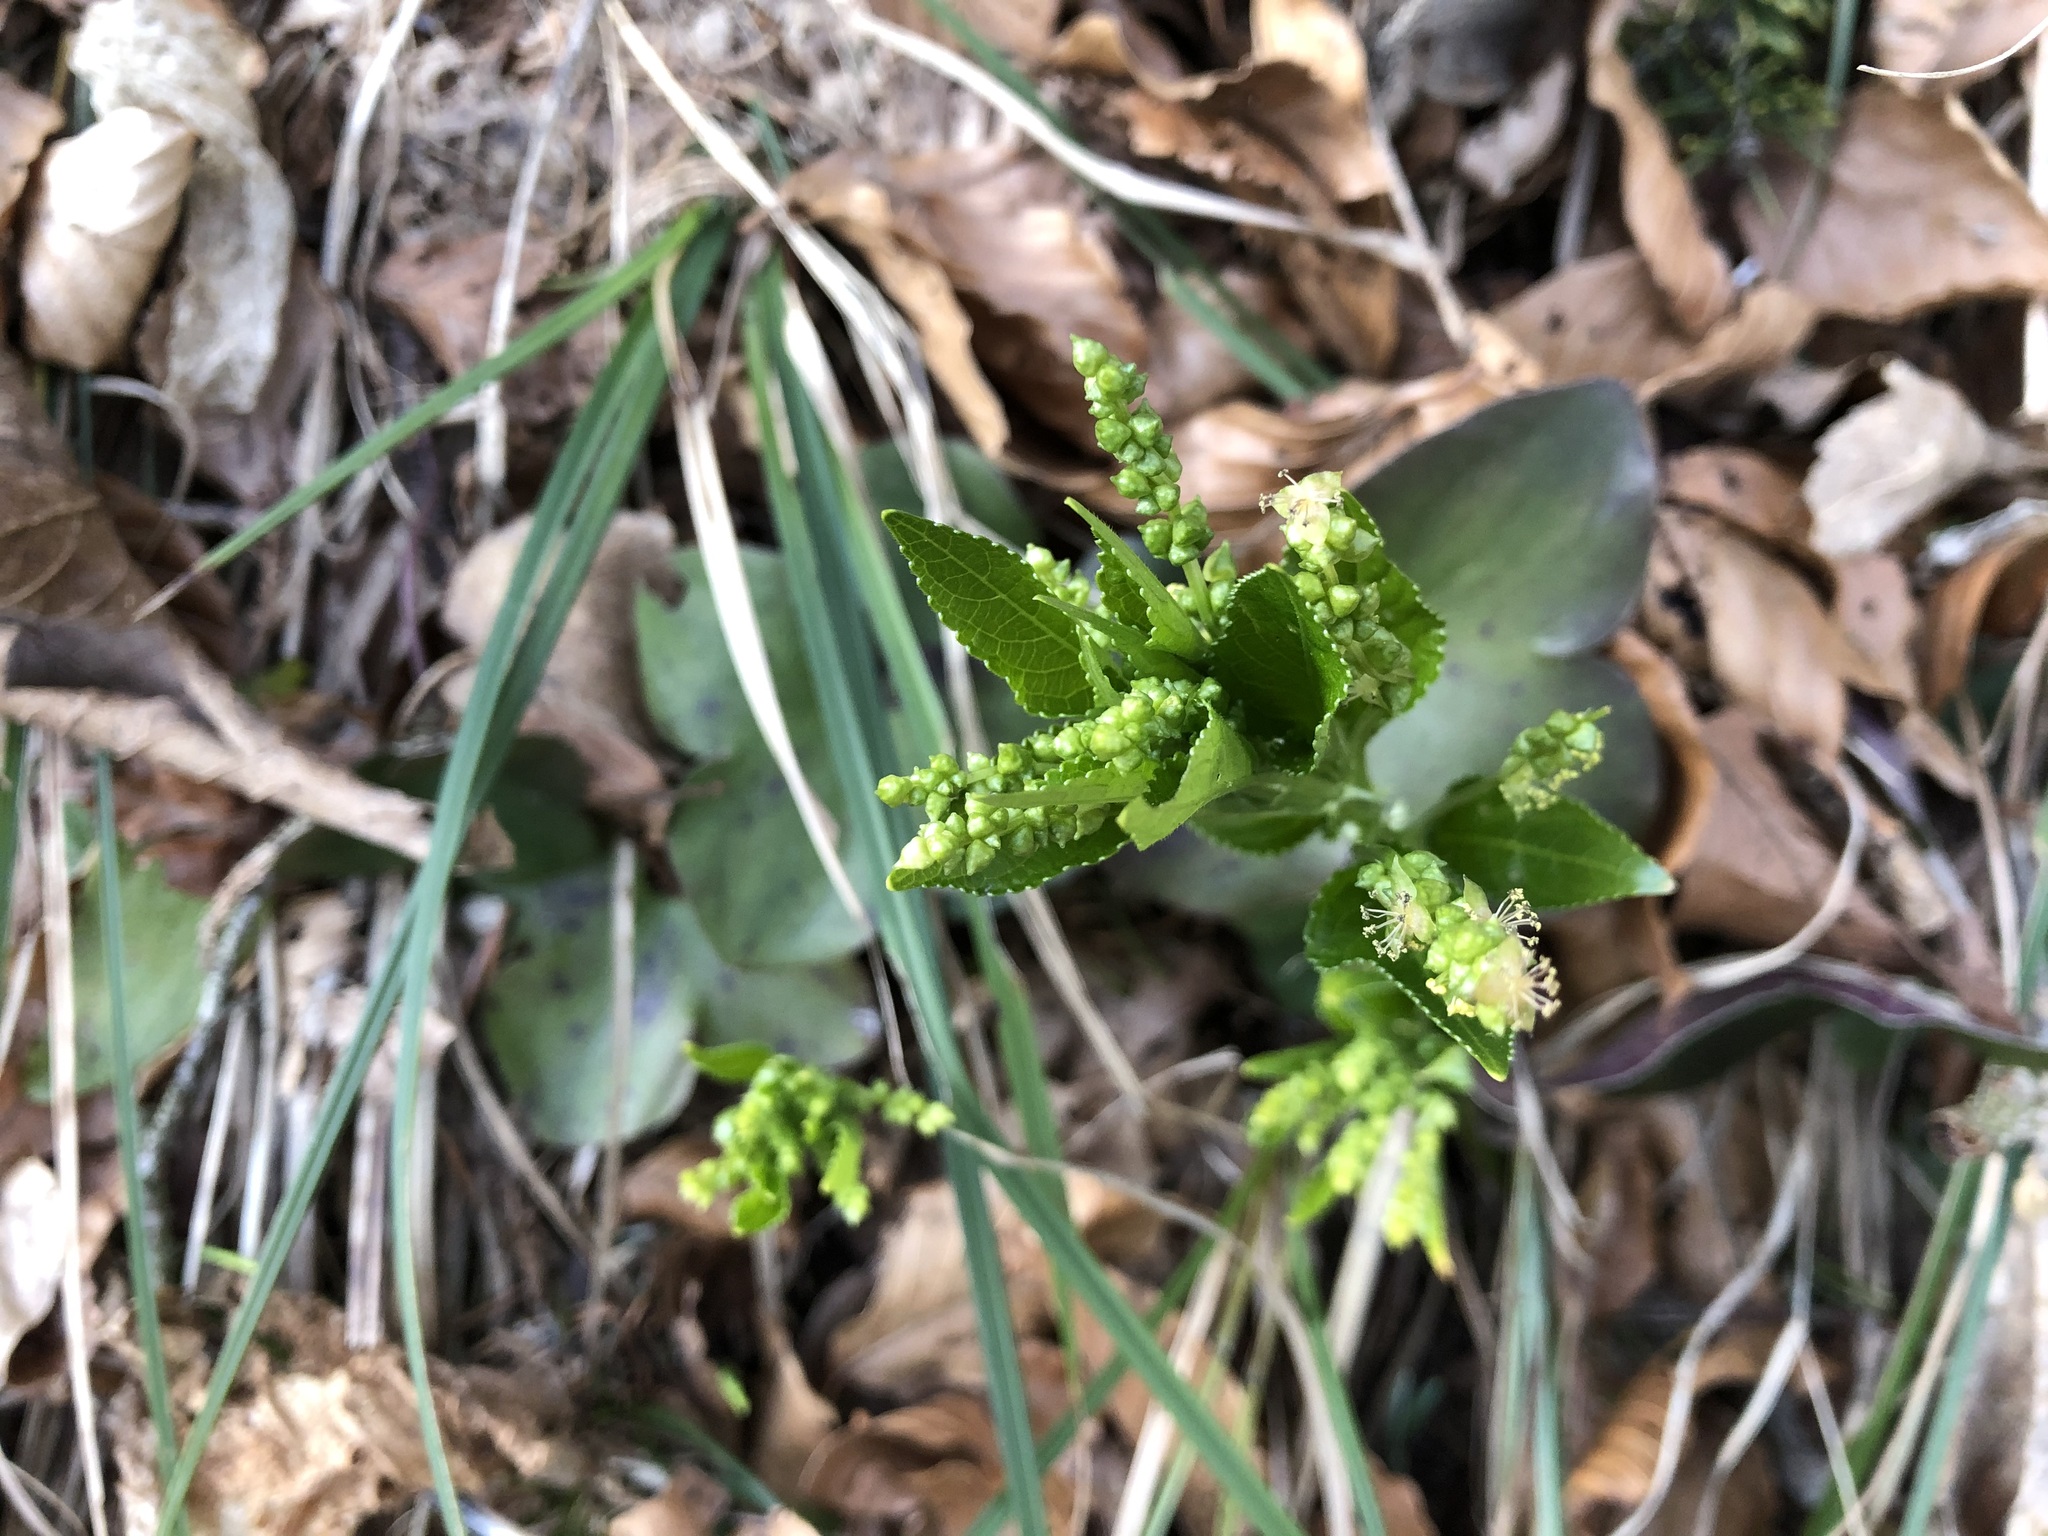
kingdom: Plantae
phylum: Tracheophyta
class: Magnoliopsida
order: Malpighiales
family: Euphorbiaceae
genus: Mercurialis
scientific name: Mercurialis perennis
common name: Dog mercury
